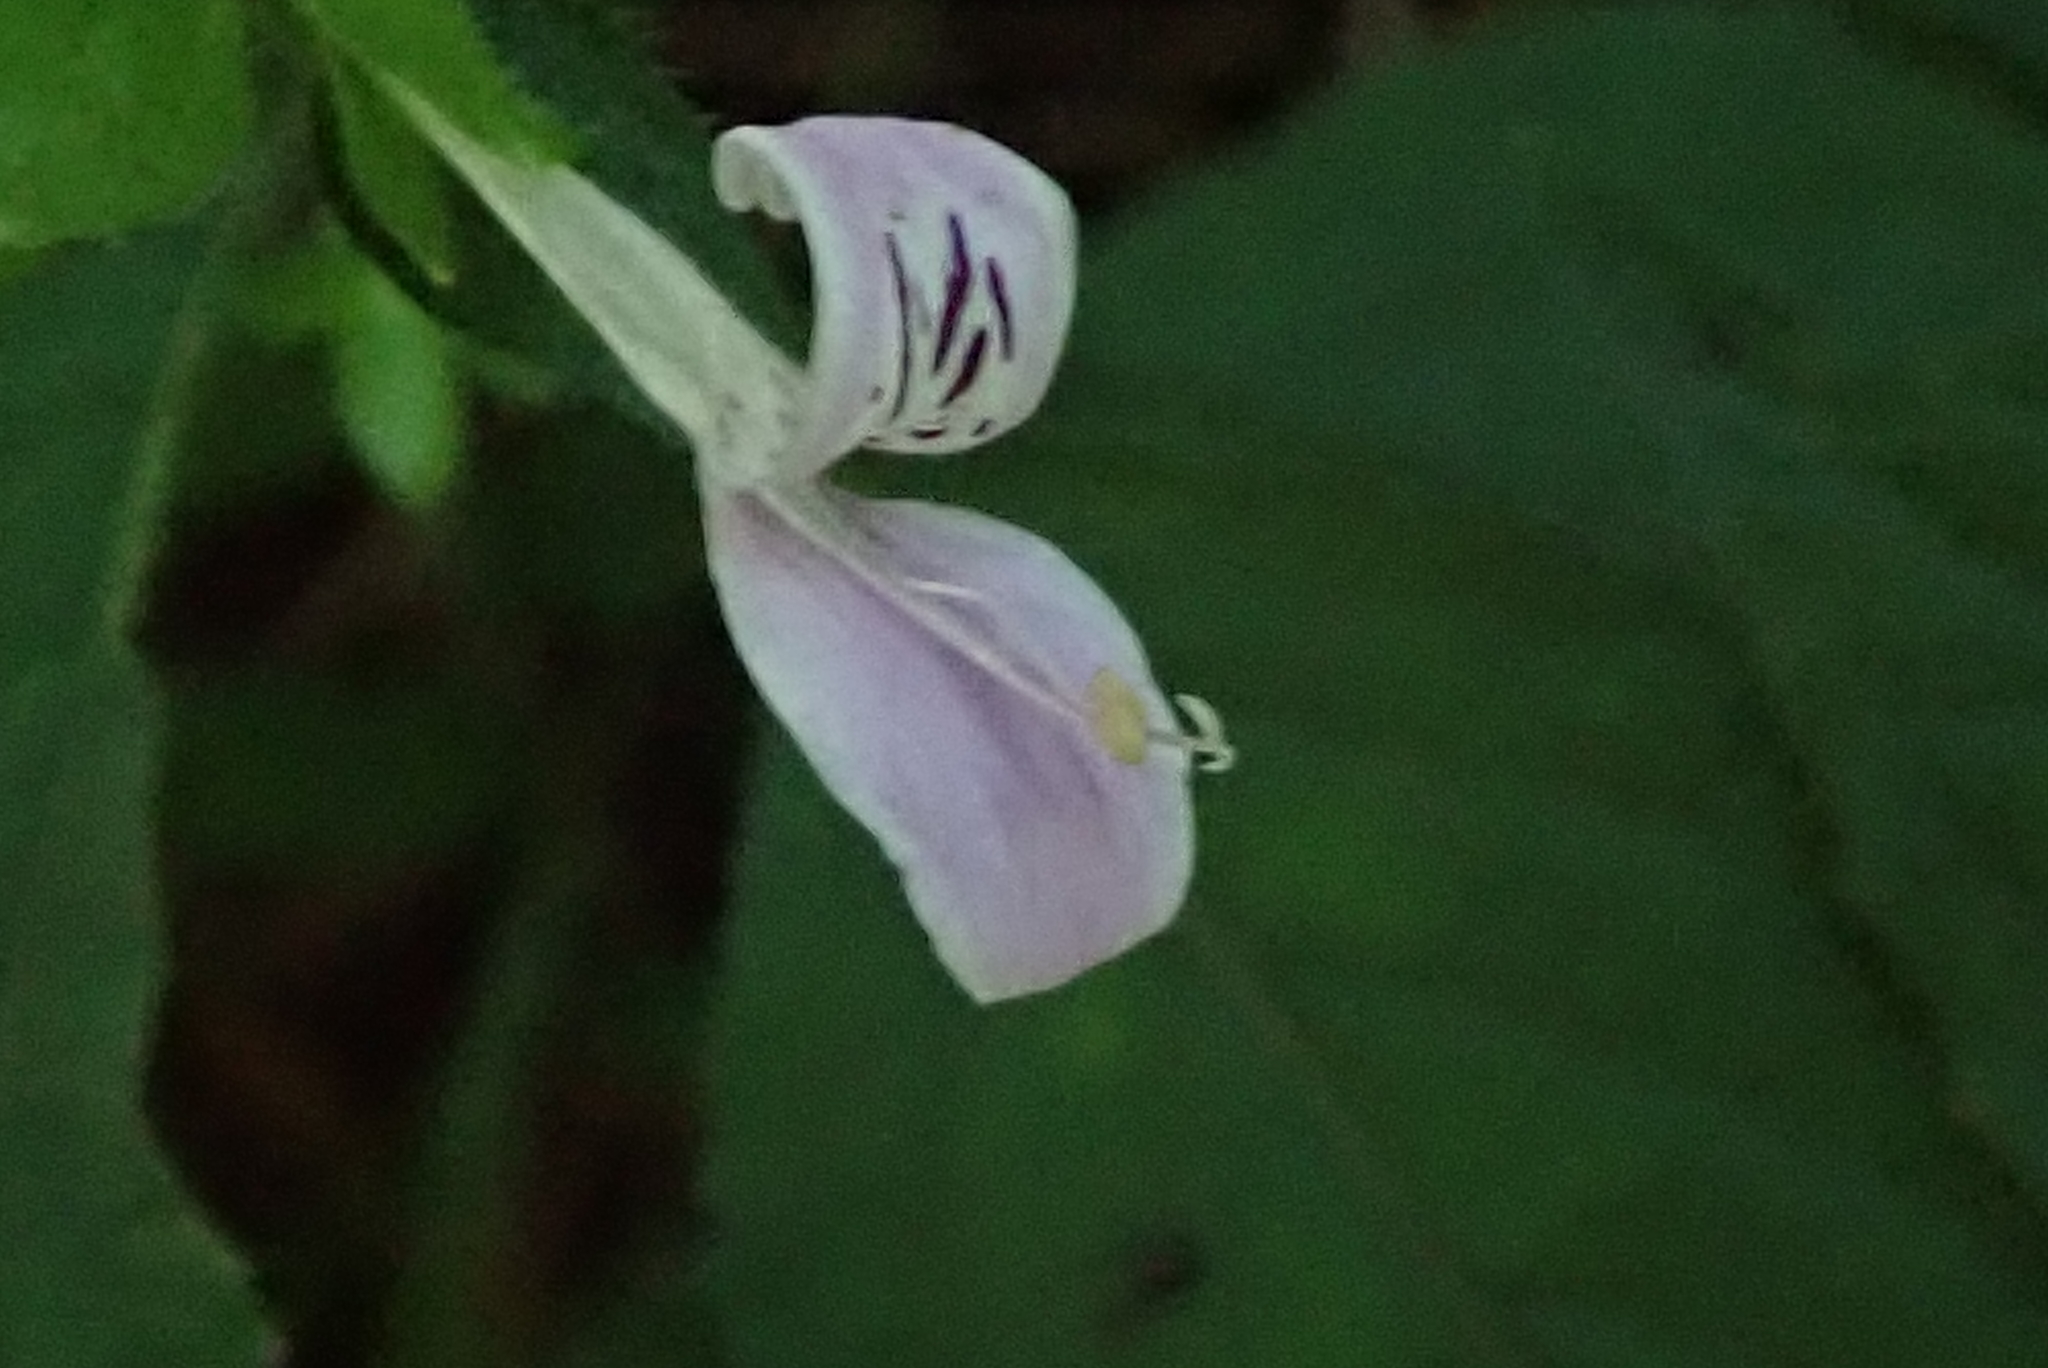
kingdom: Plantae
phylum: Tracheophyta
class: Magnoliopsida
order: Lamiales
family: Acanthaceae
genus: Hypoestes
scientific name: Hypoestes triflora
